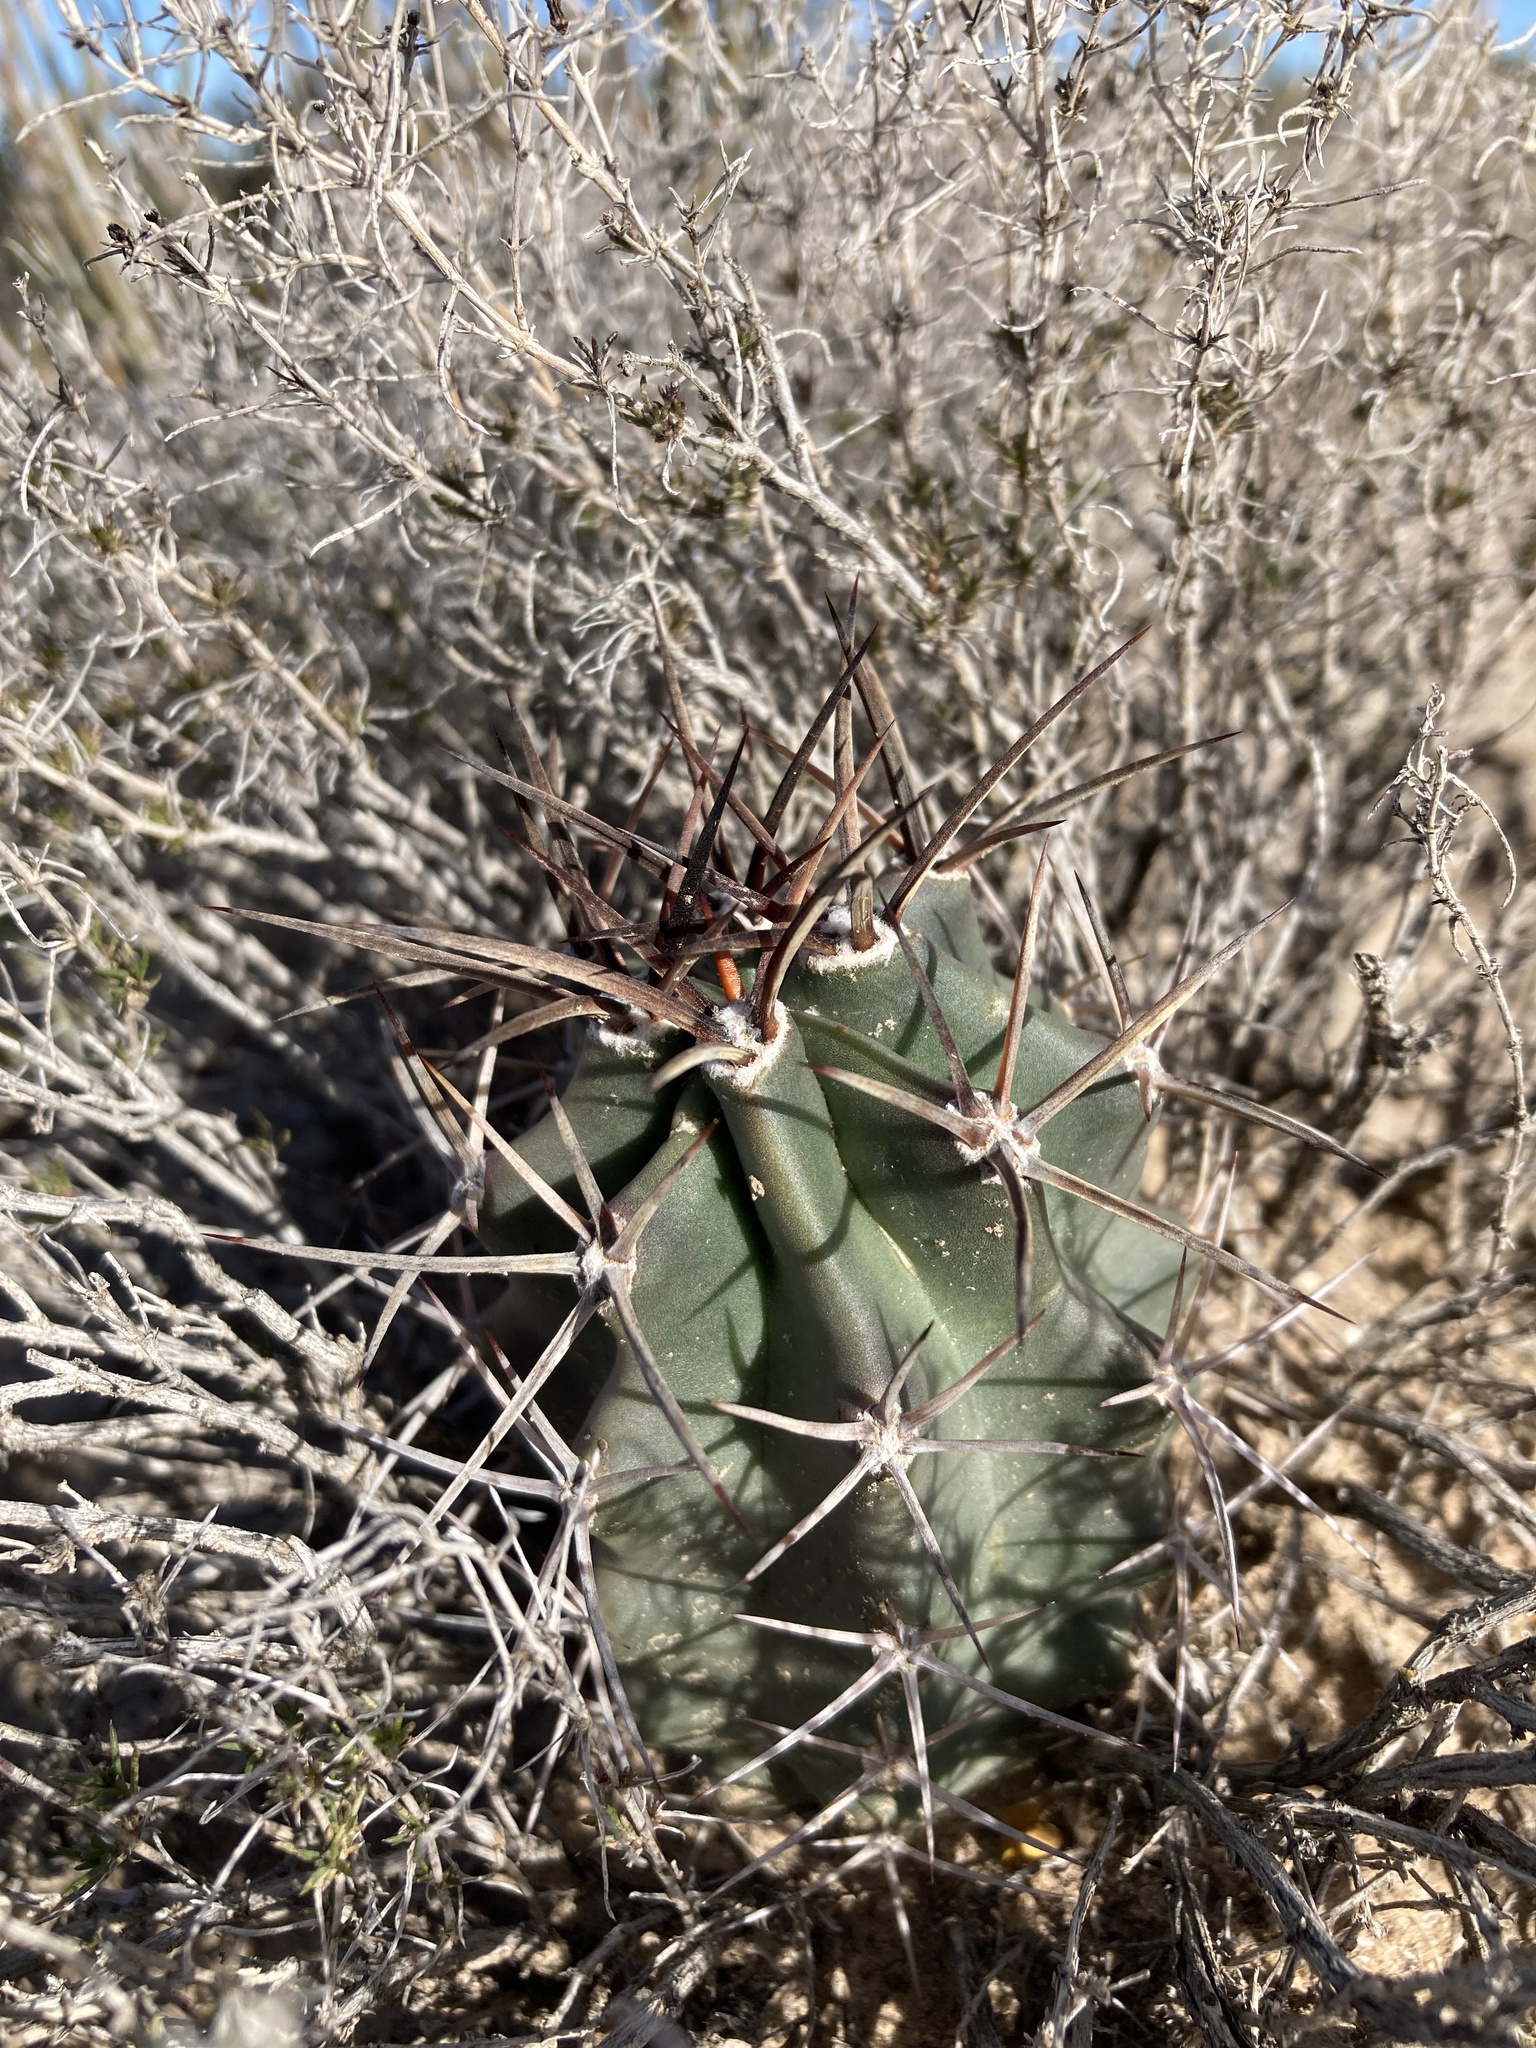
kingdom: Plantae
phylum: Tracheophyta
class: Magnoliopsida
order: Caryophyllales
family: Cactaceae
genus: Echinocereus
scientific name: Echinocereus triglochidiatus
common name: Claretcup hedgehog
